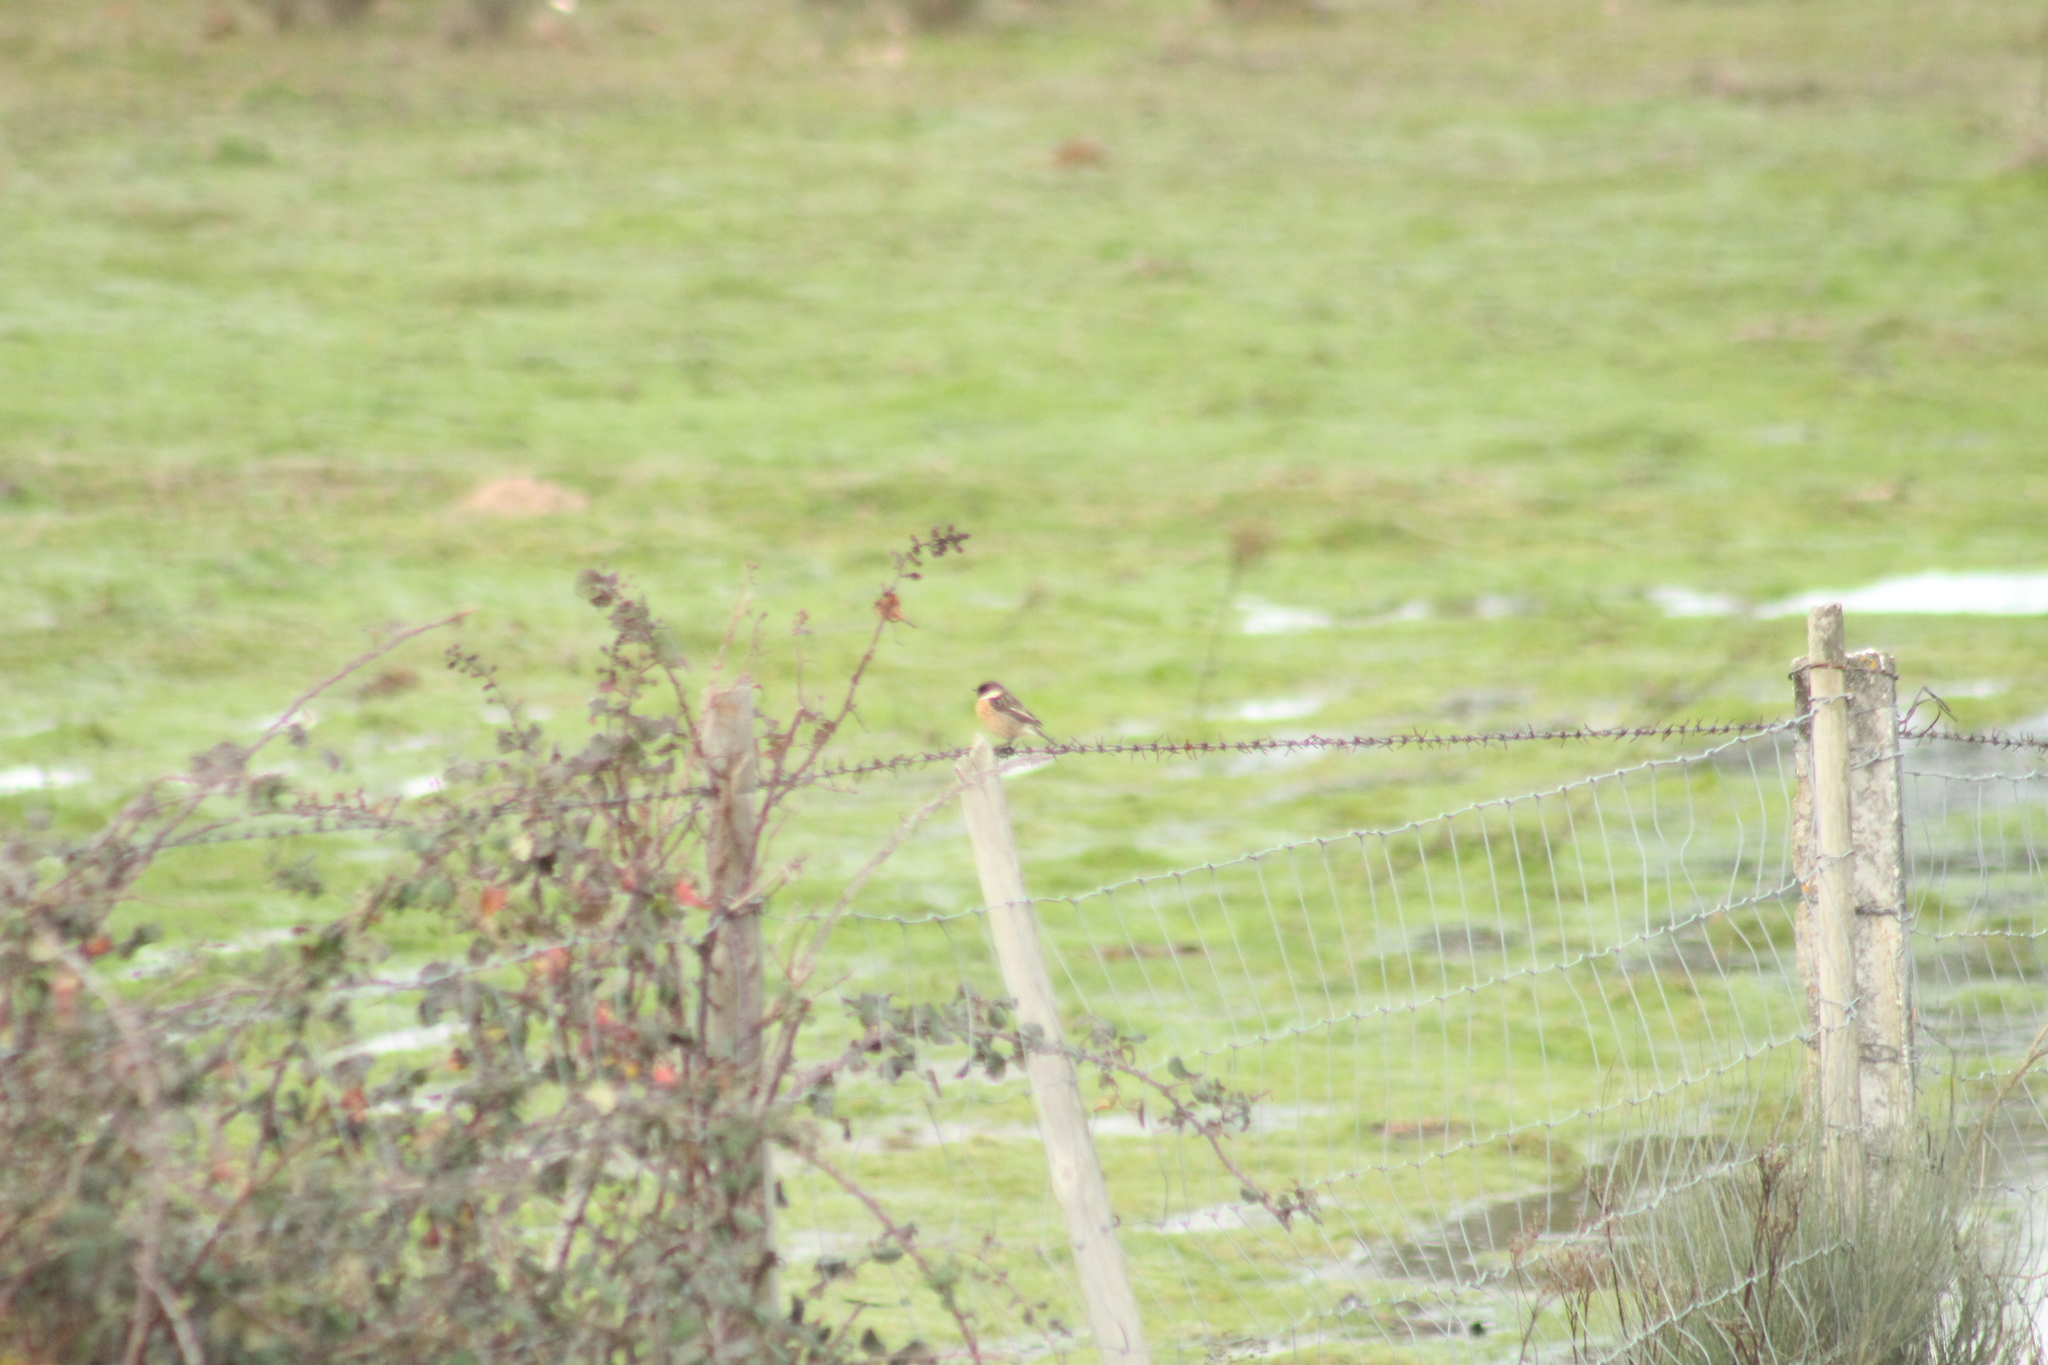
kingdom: Animalia
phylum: Chordata
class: Aves
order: Passeriformes
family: Muscicapidae
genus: Saxicola
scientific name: Saxicola rubicola
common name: European stonechat
